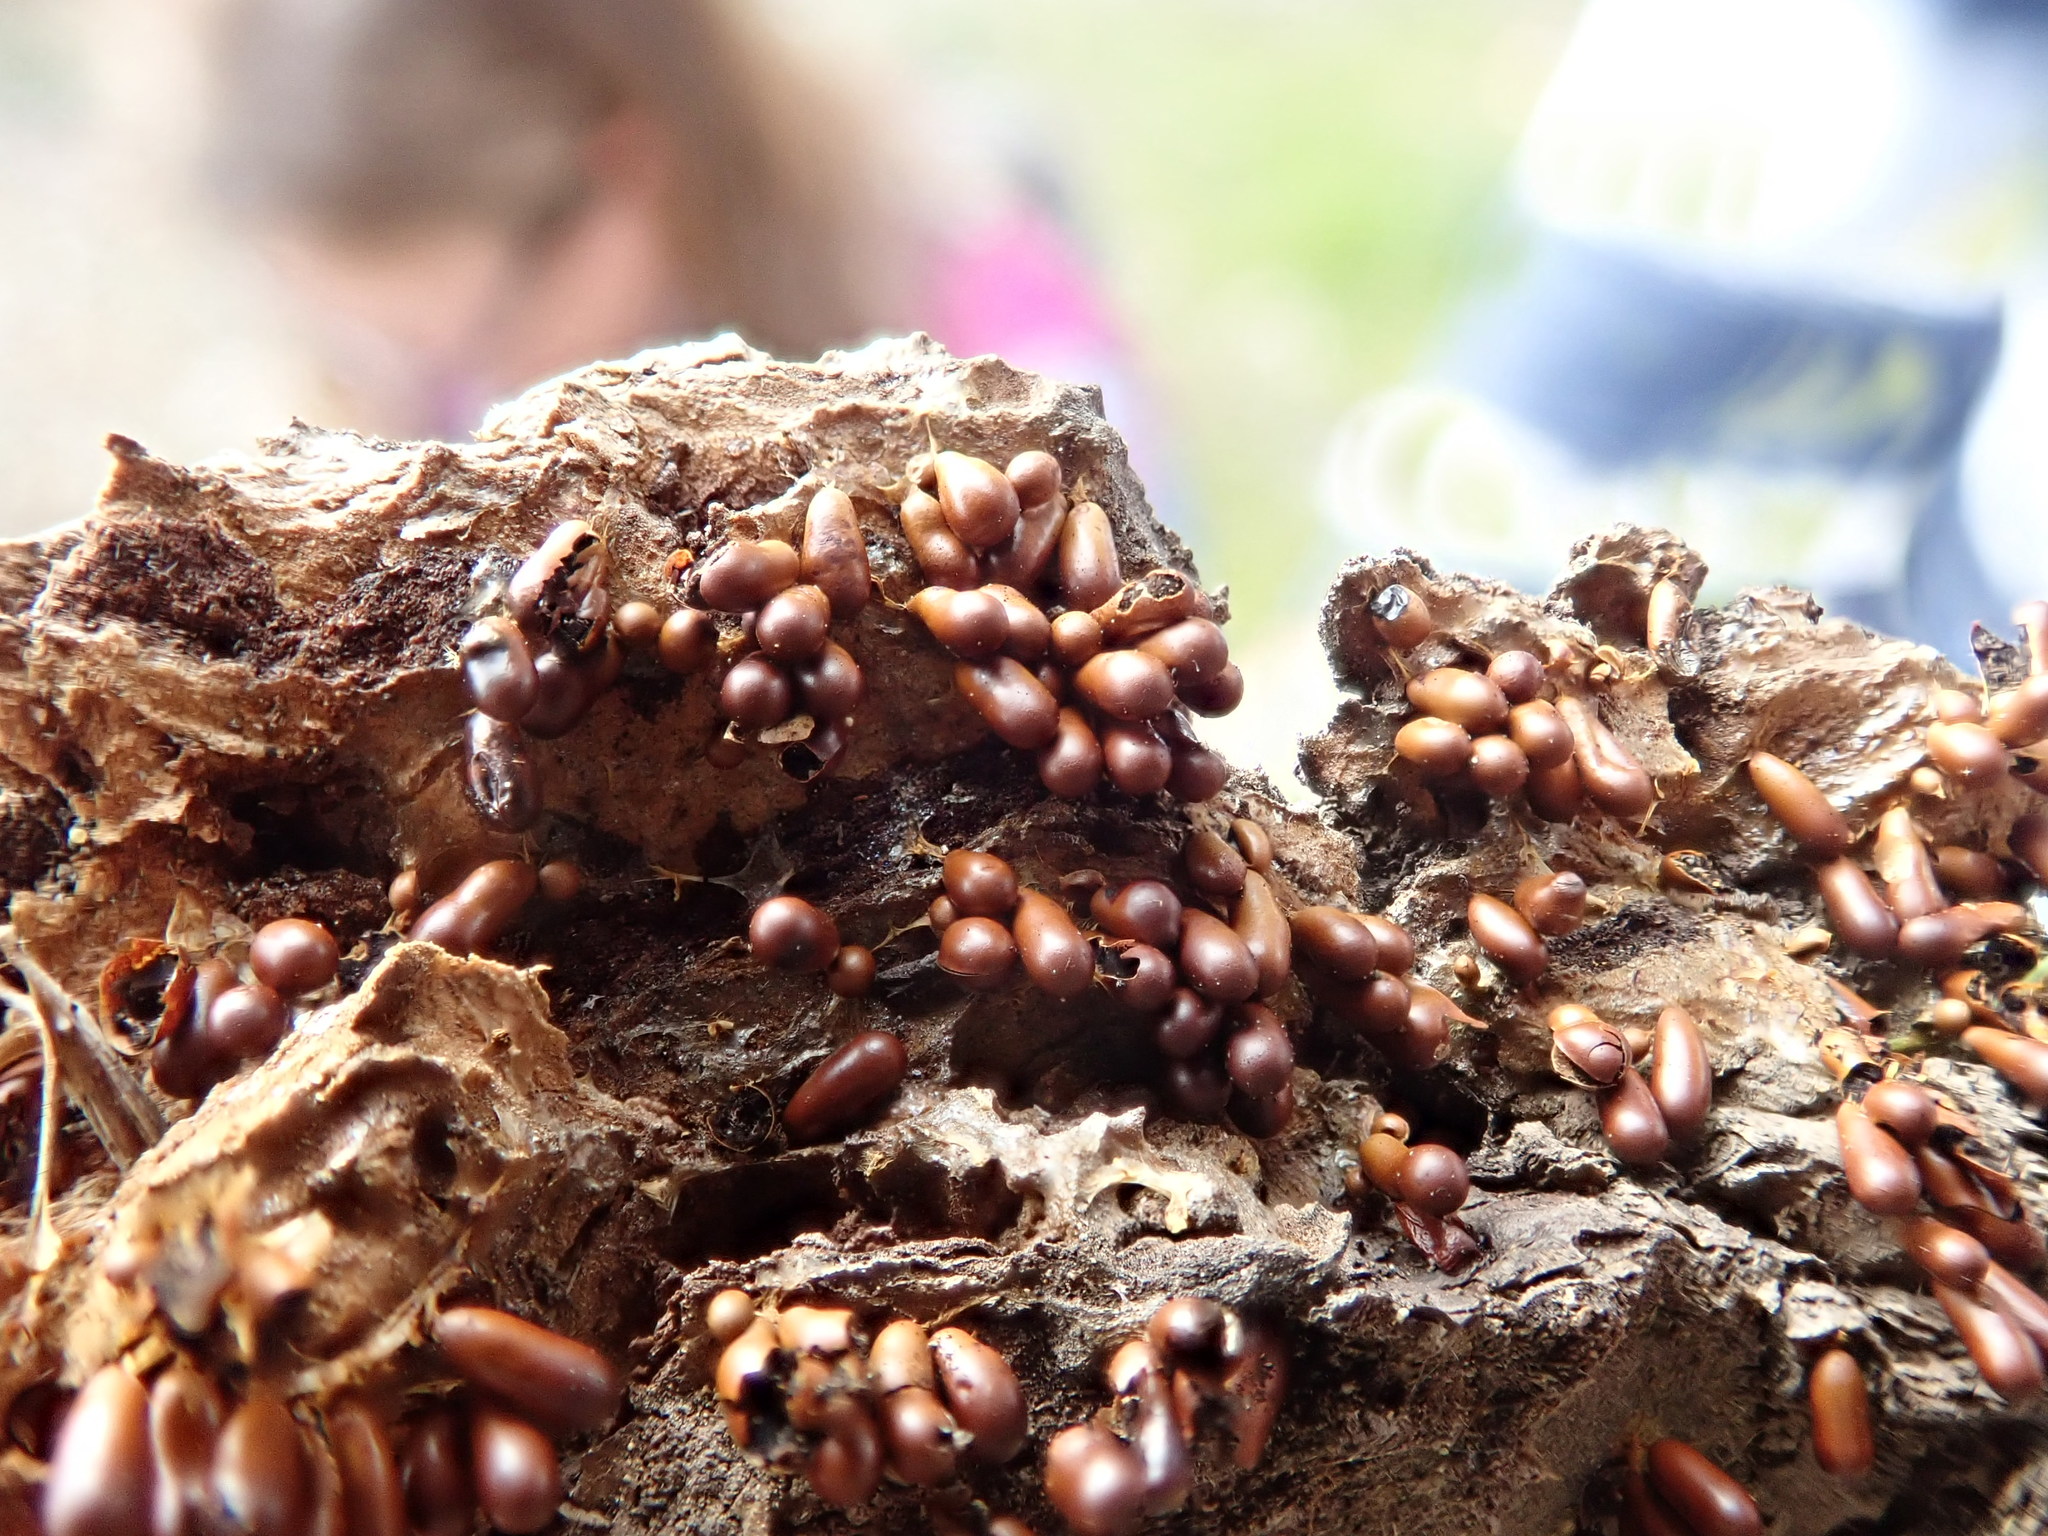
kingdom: Protozoa
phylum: Mycetozoa
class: Myxomycetes
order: Physarales
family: Physaraceae
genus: Leocarpus
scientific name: Leocarpus fragilis
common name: Insect-egg slime
